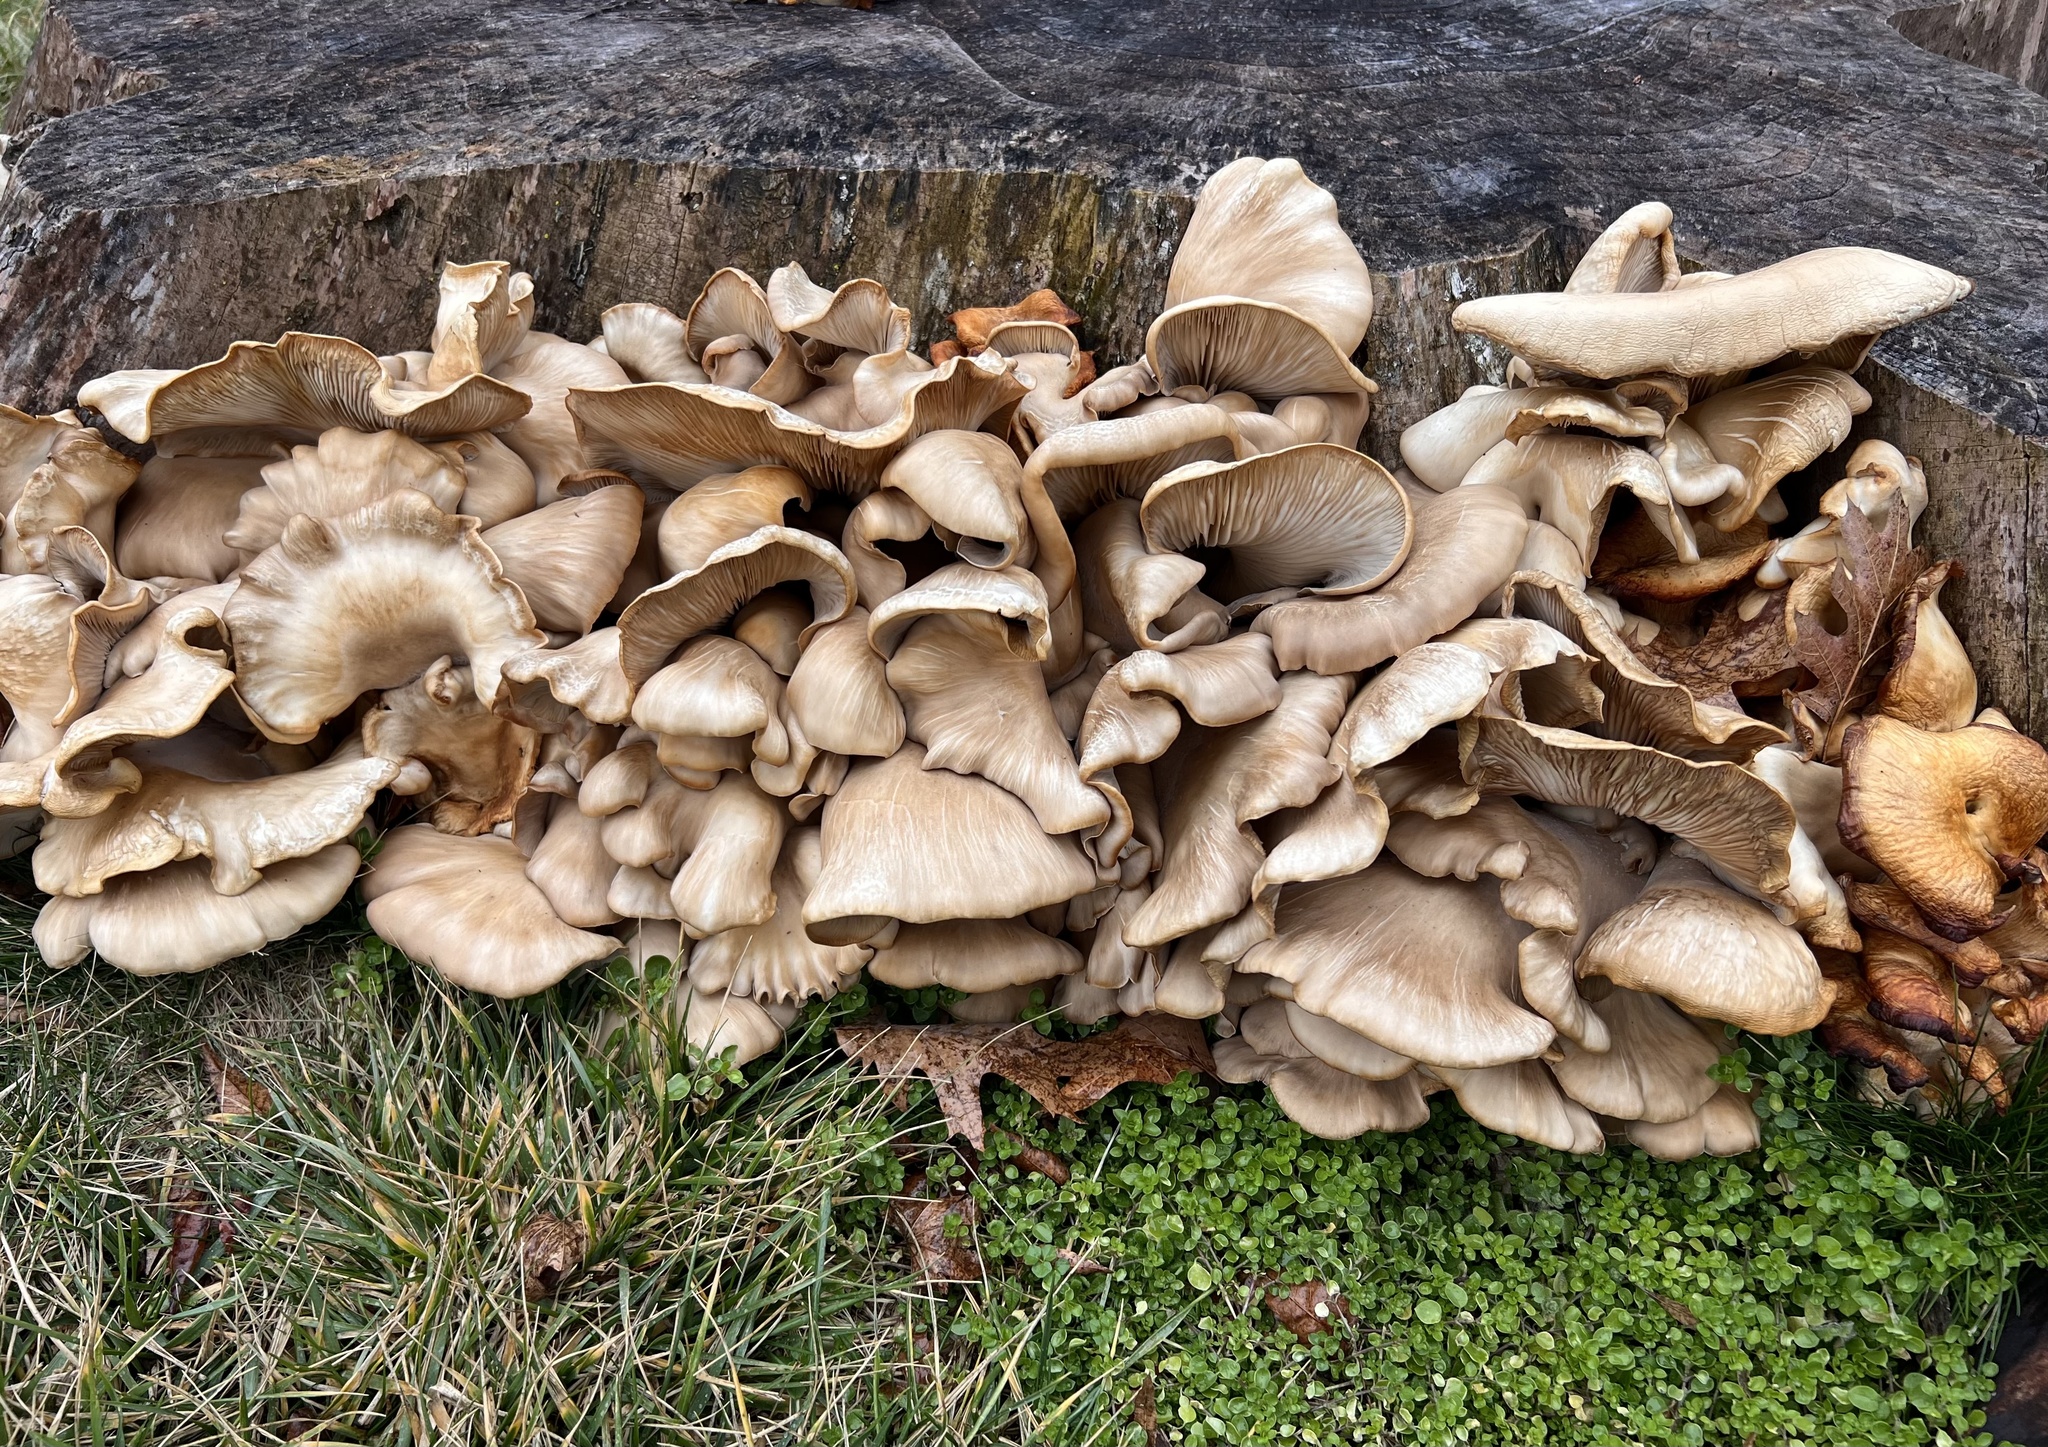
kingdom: Fungi
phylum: Basidiomycota
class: Agaricomycetes
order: Agaricales
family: Pleurotaceae
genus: Pleurotus
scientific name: Pleurotus ostreatus
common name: Oyster mushroom
